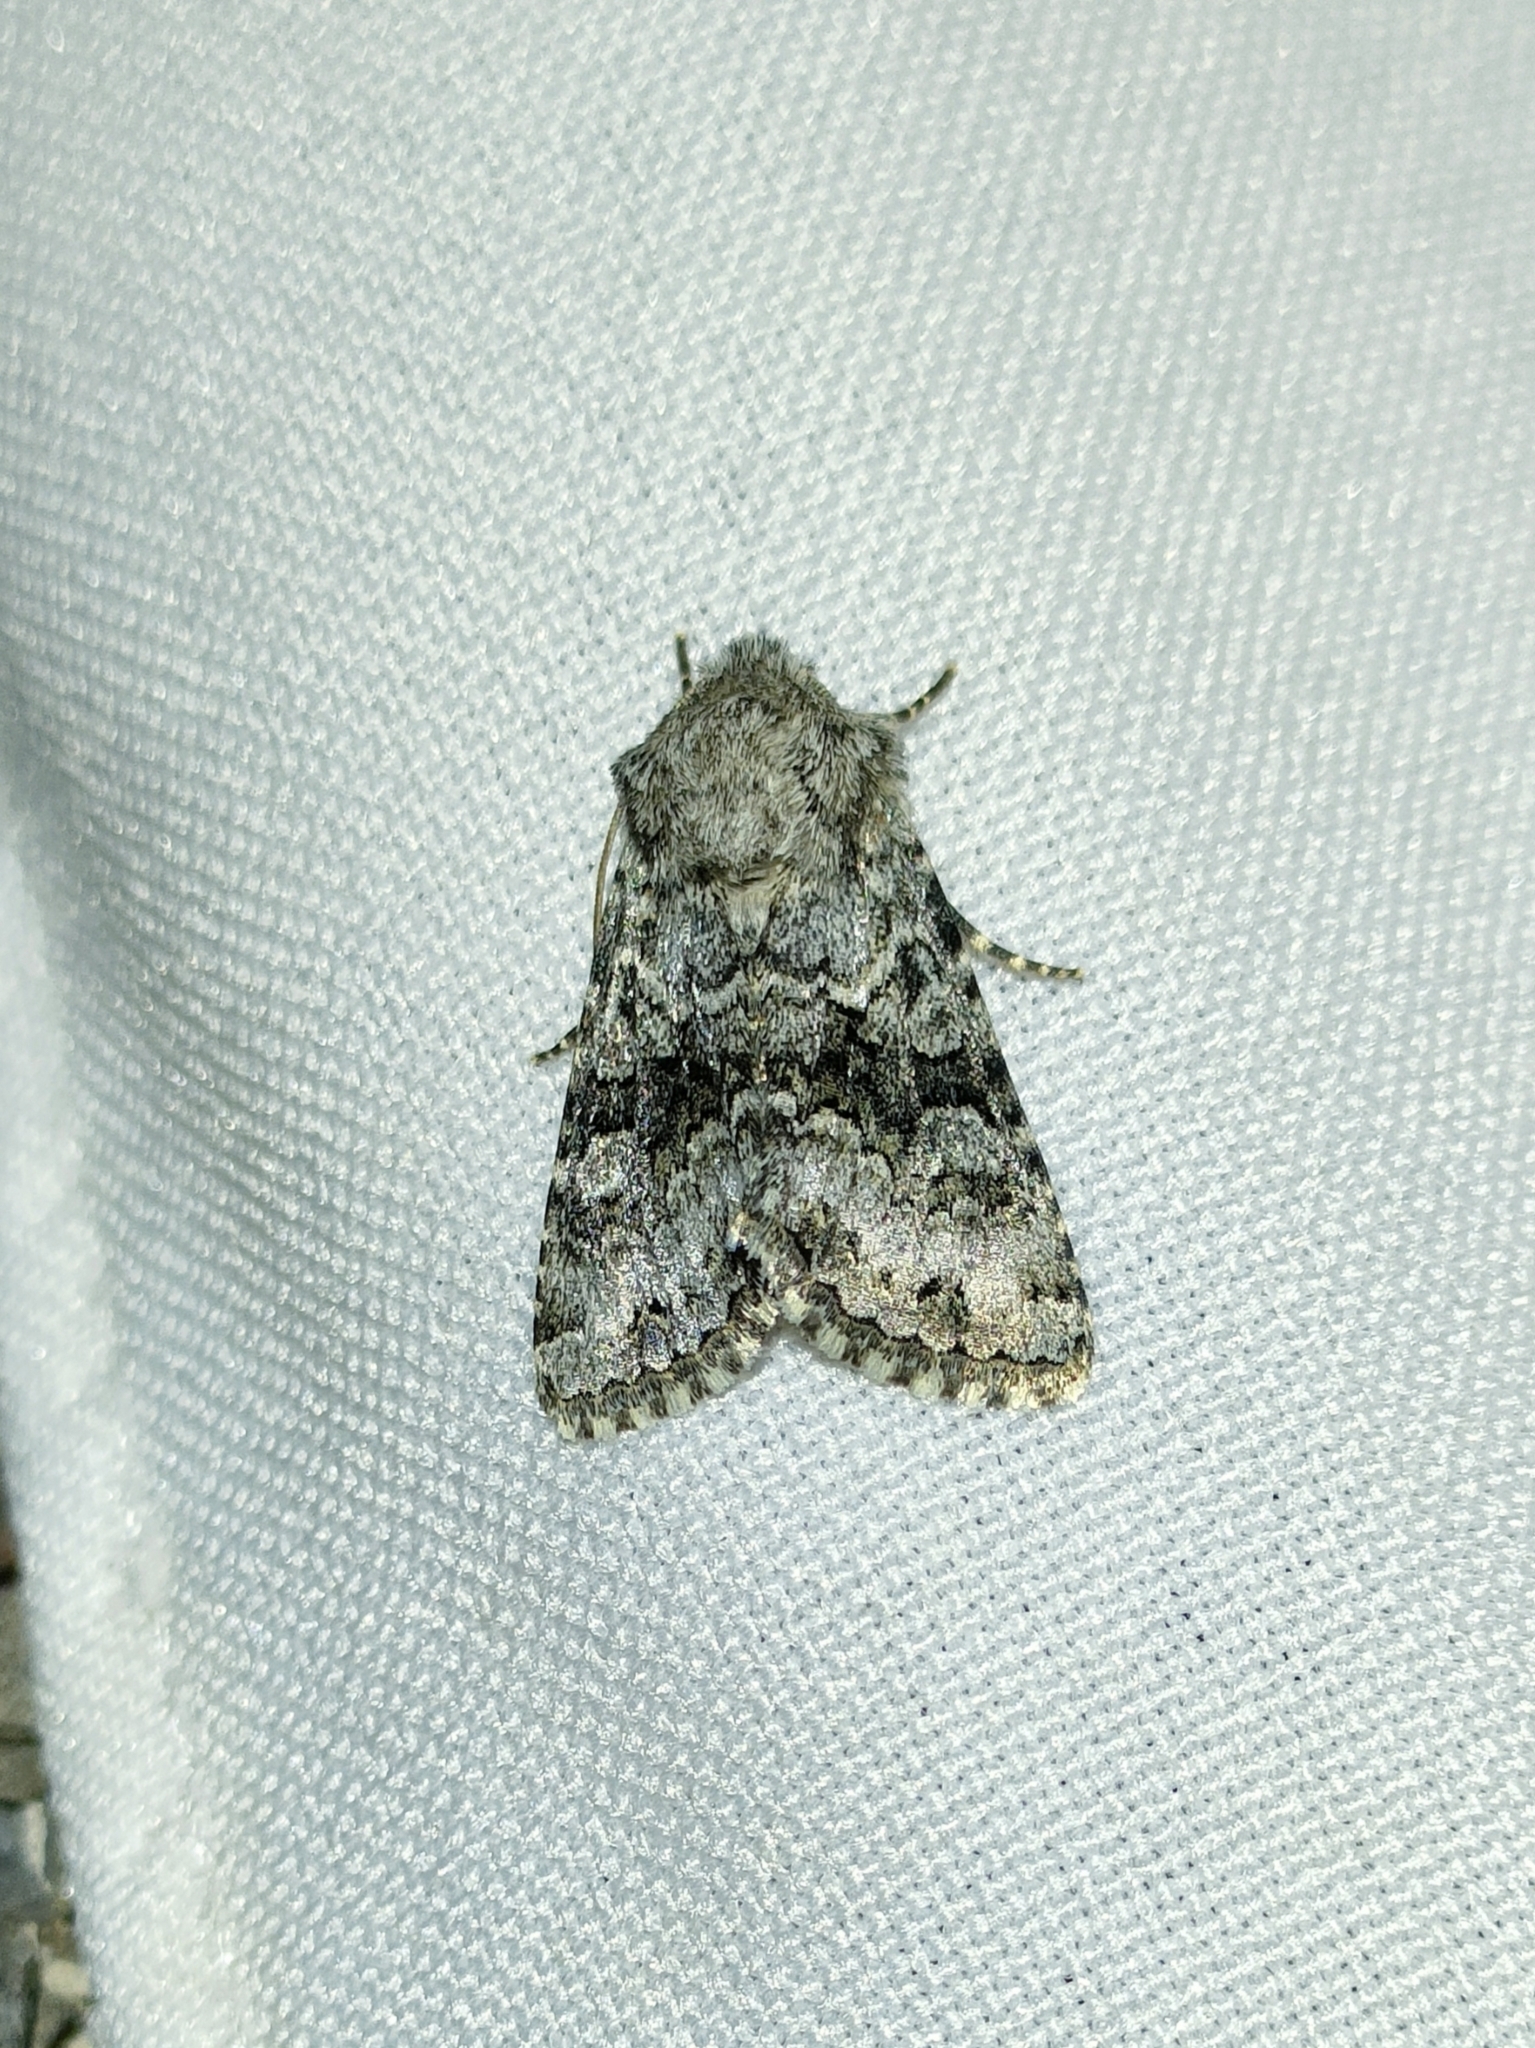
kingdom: Animalia
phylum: Arthropoda
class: Insecta
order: Lepidoptera
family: Noctuidae
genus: Hecatera
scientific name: Hecatera bicolorata
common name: Broad-barred white
